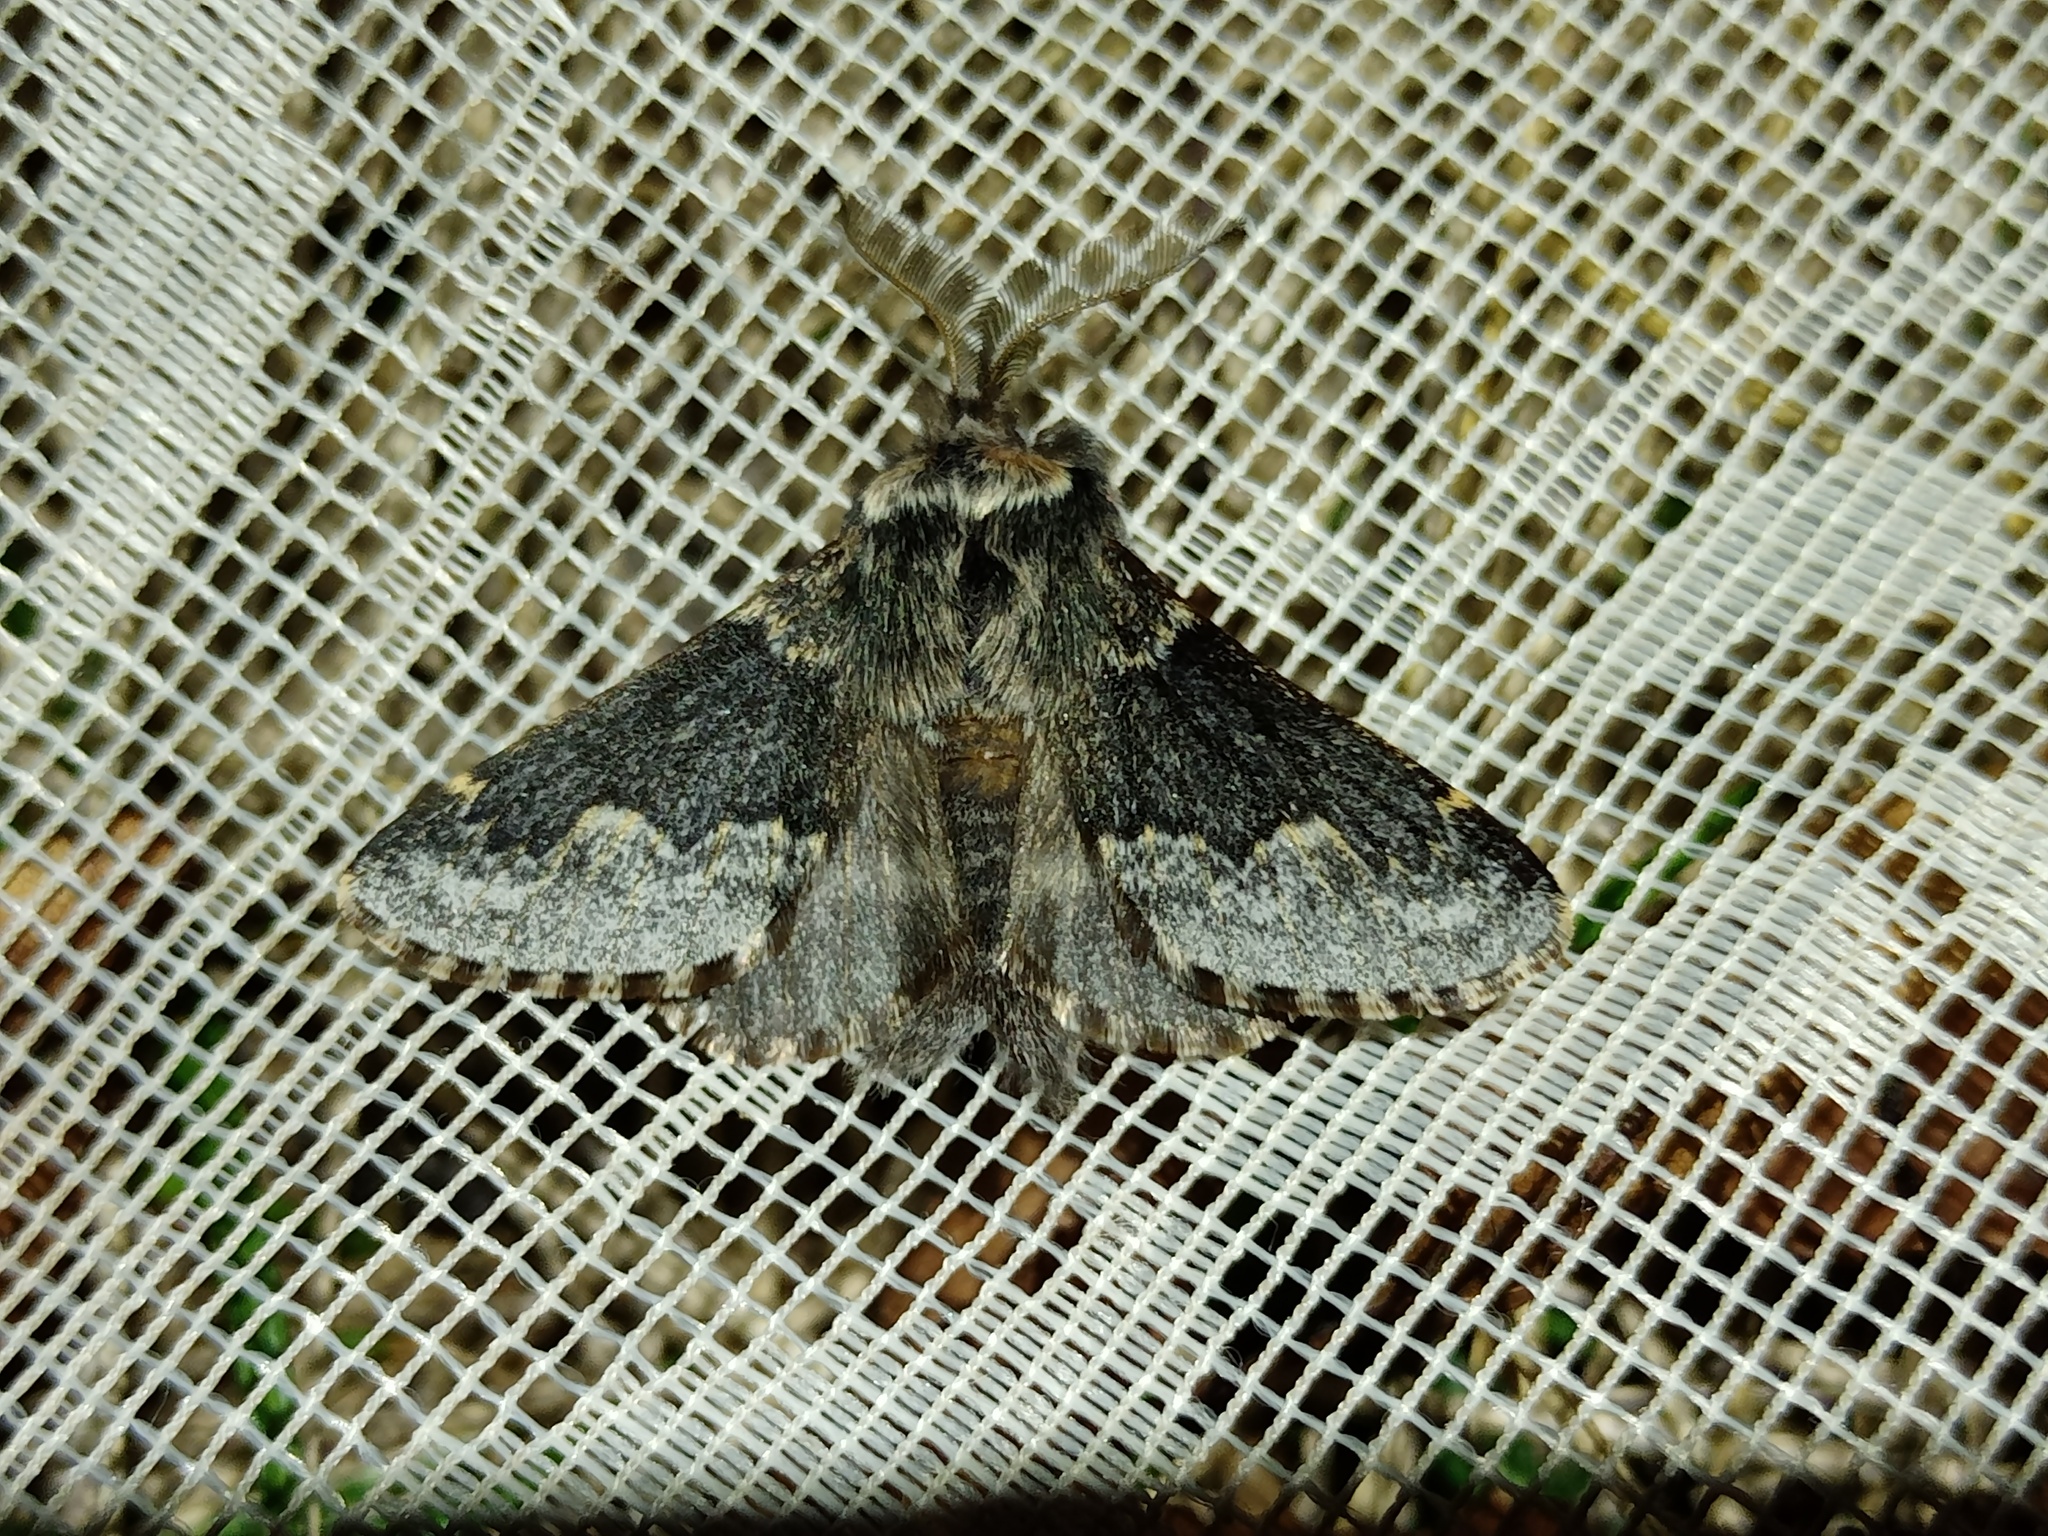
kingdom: Animalia
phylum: Arthropoda
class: Insecta
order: Lepidoptera
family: Lasiocampidae
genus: Poecilocampa
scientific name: Poecilocampa alpina
